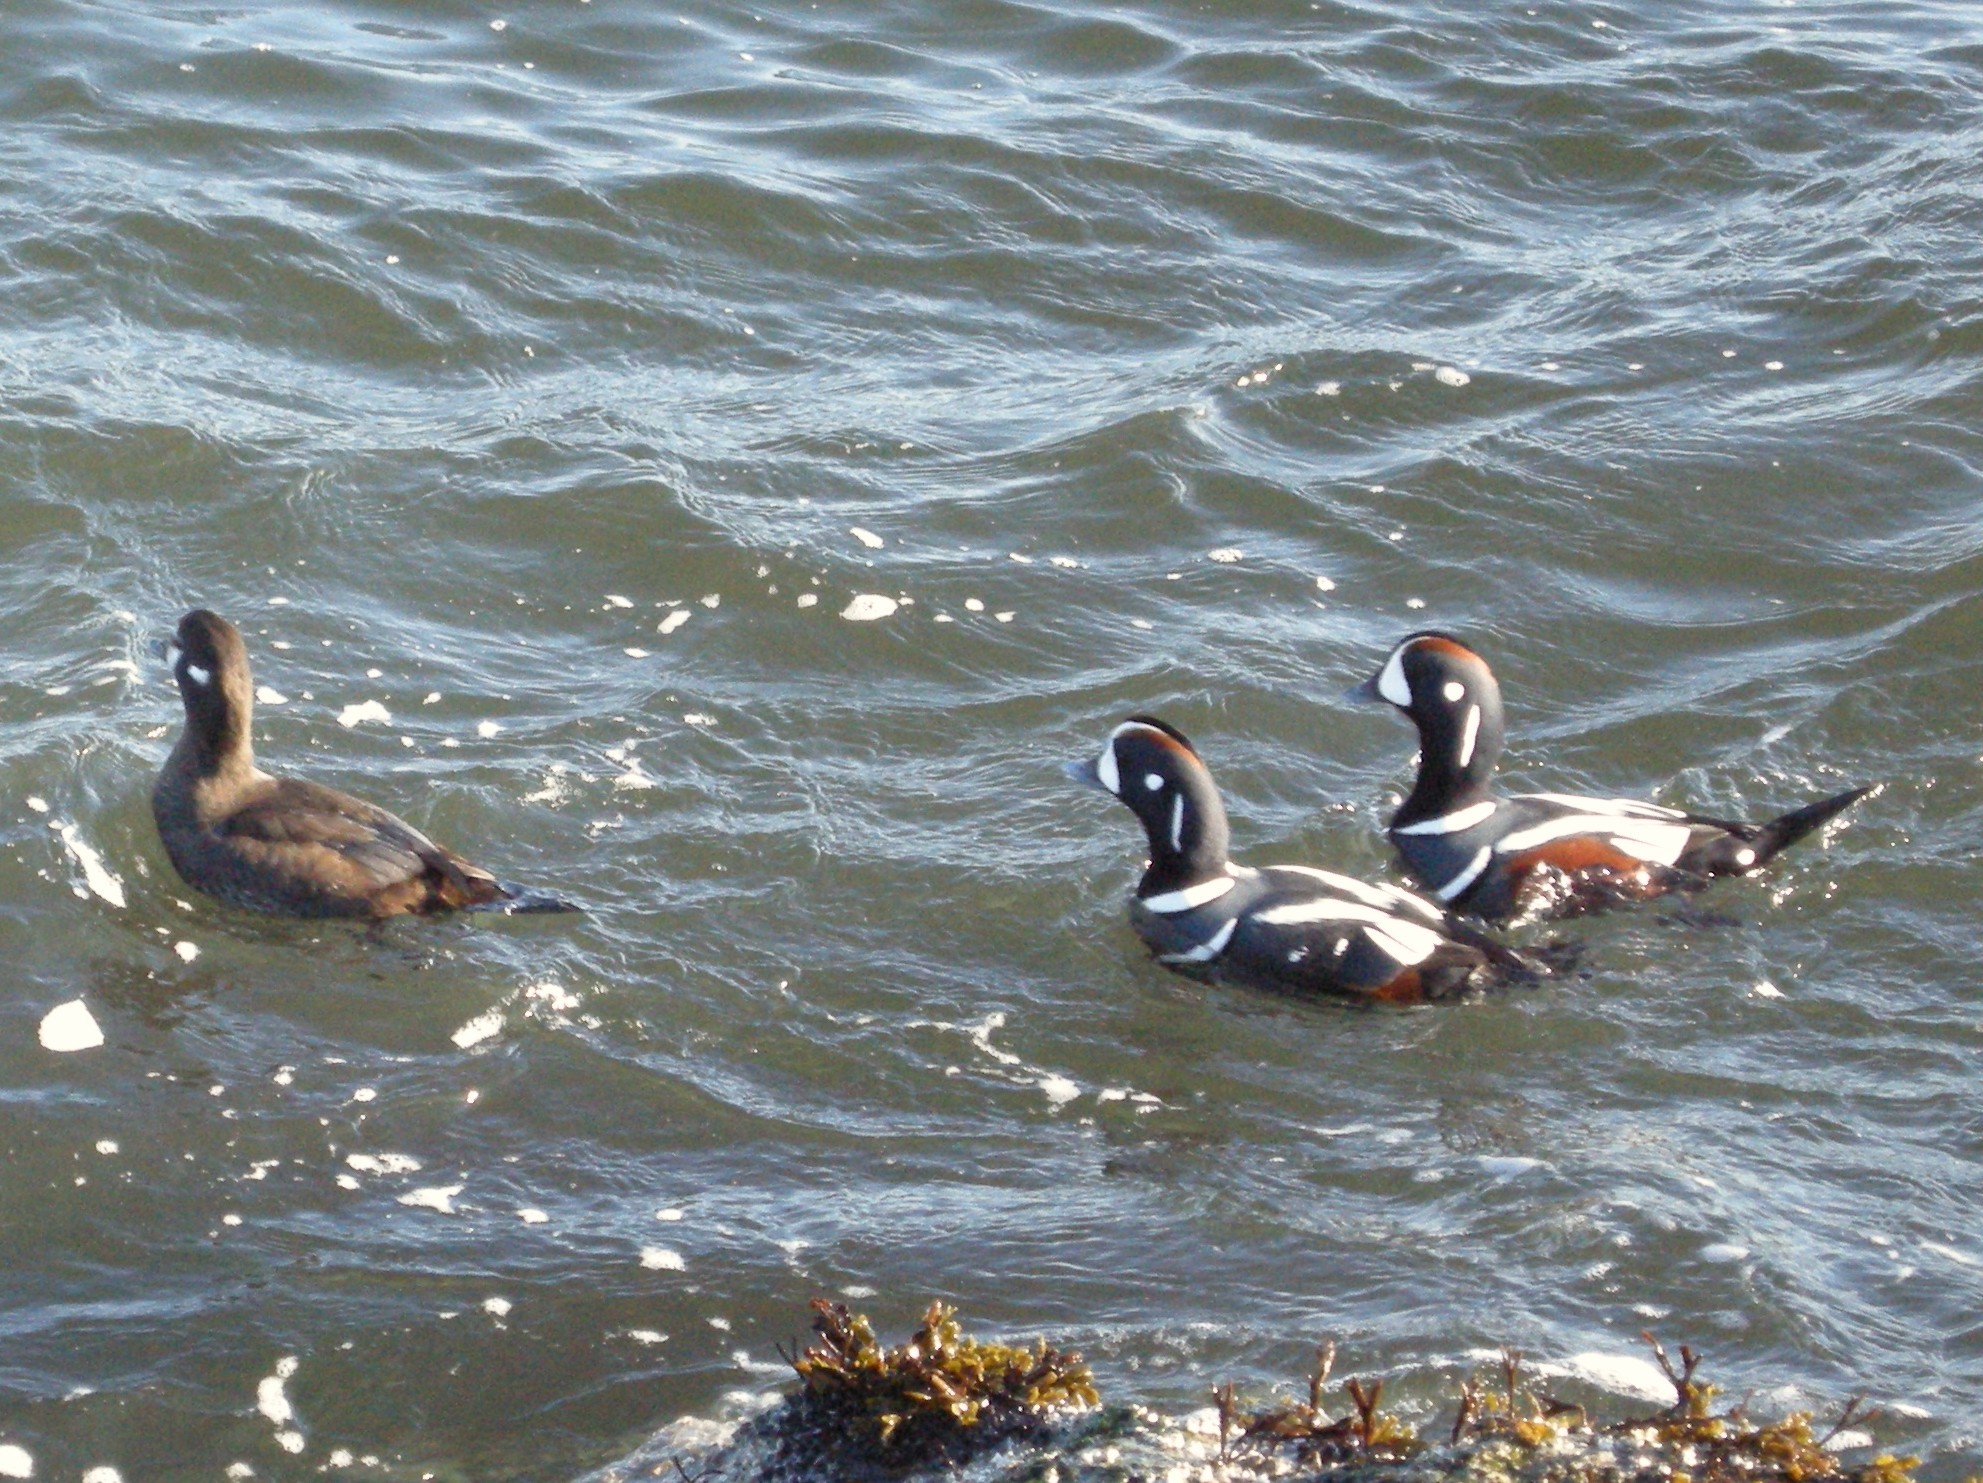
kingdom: Animalia
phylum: Chordata
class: Aves
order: Anseriformes
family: Anatidae
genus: Histrionicus
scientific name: Histrionicus histrionicus
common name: Harlequin duck
